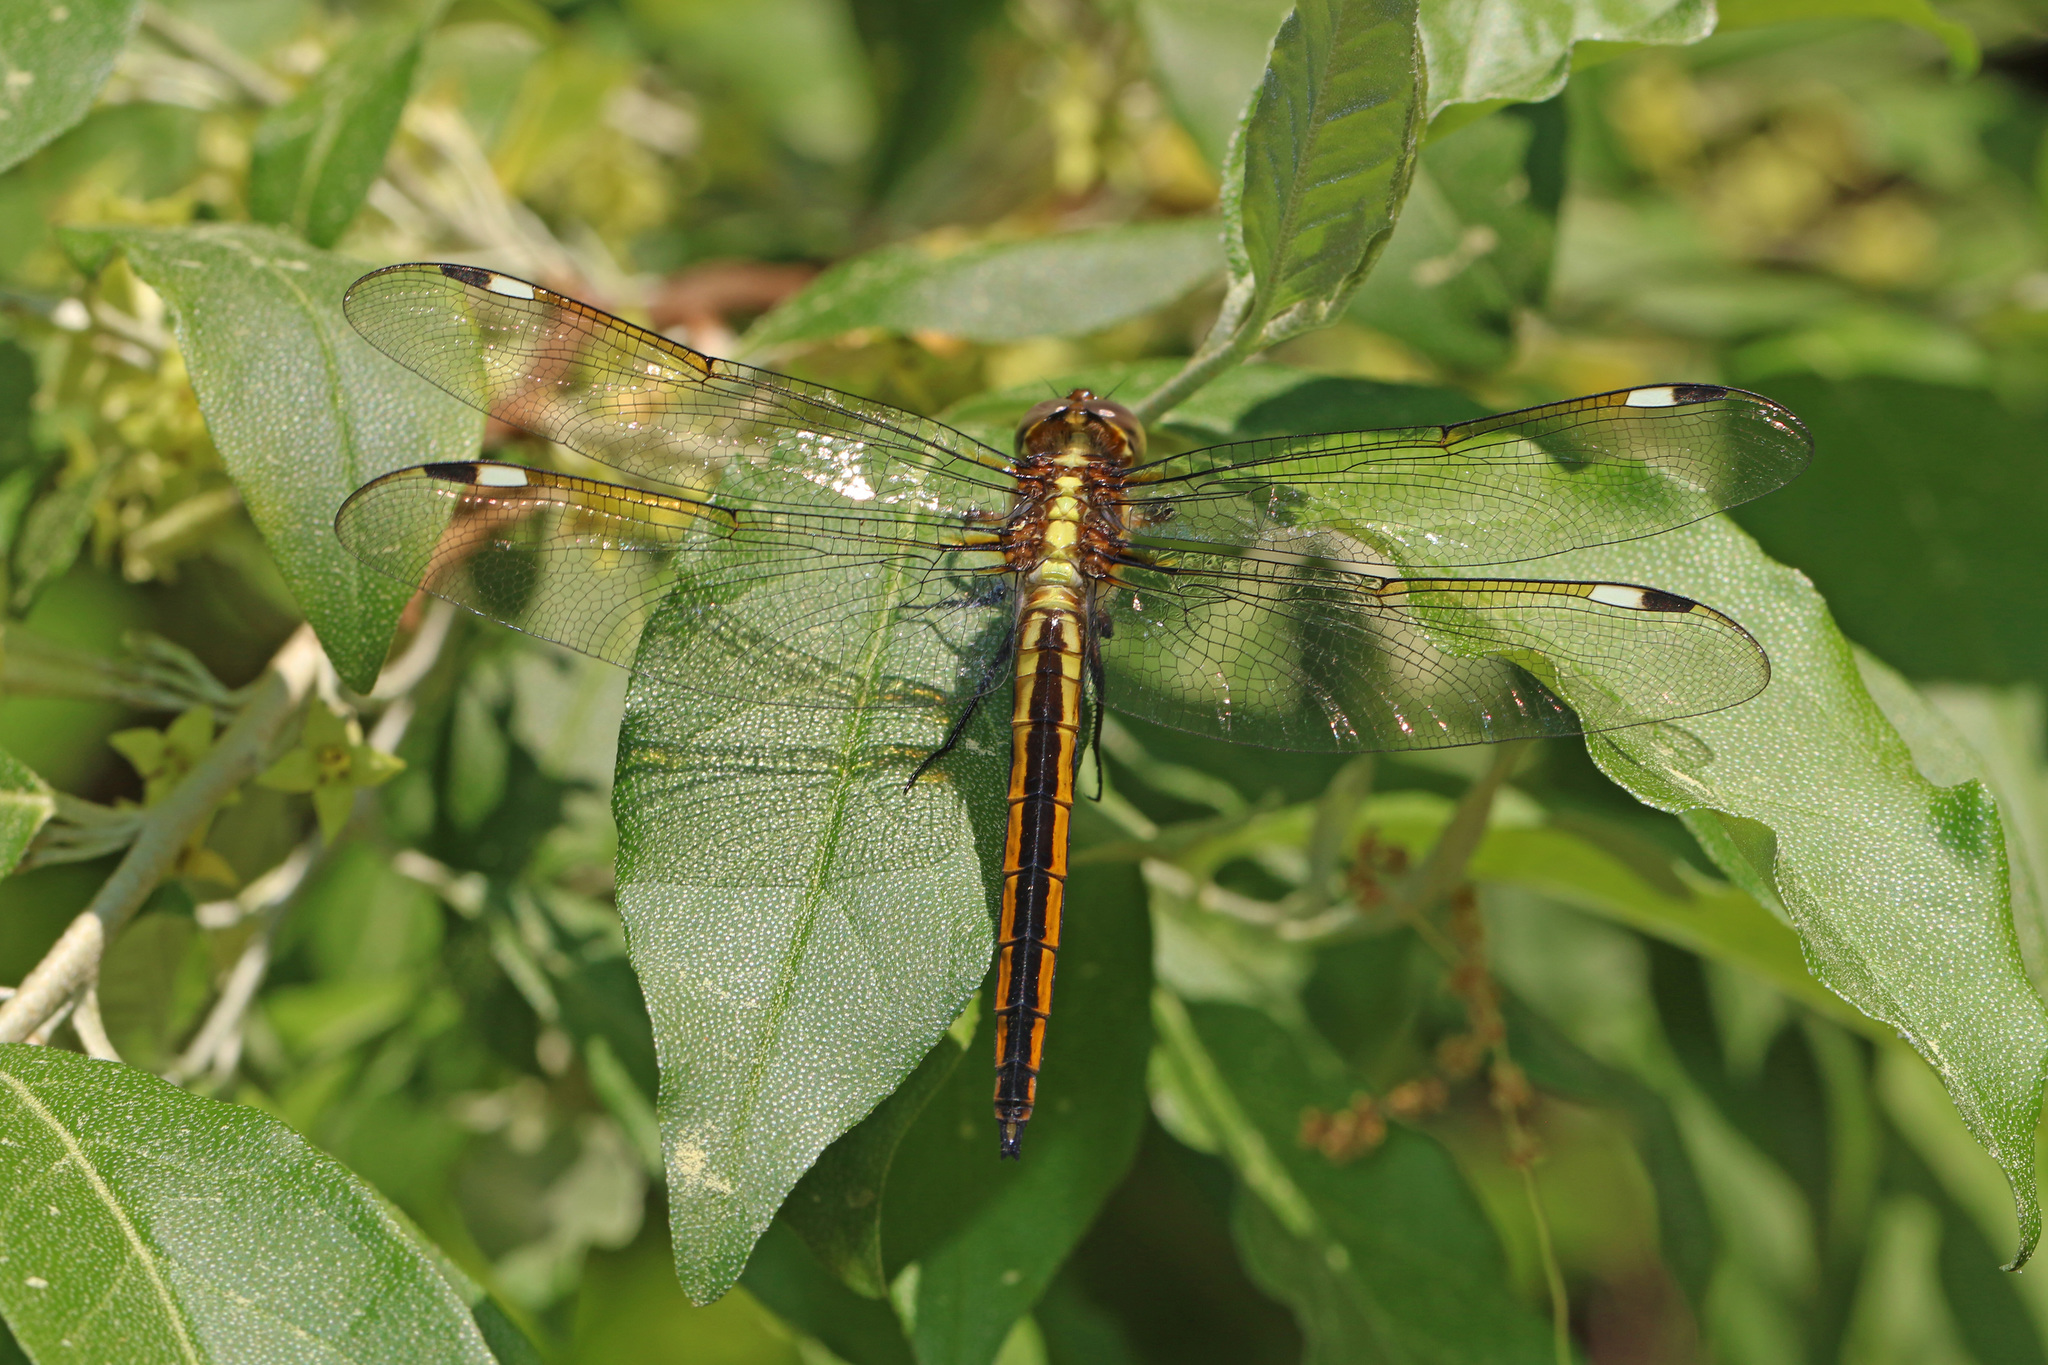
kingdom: Animalia
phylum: Arthropoda
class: Insecta
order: Odonata
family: Libellulidae
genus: Libellula
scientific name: Libellula cyanea
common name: Spangled skimmer
